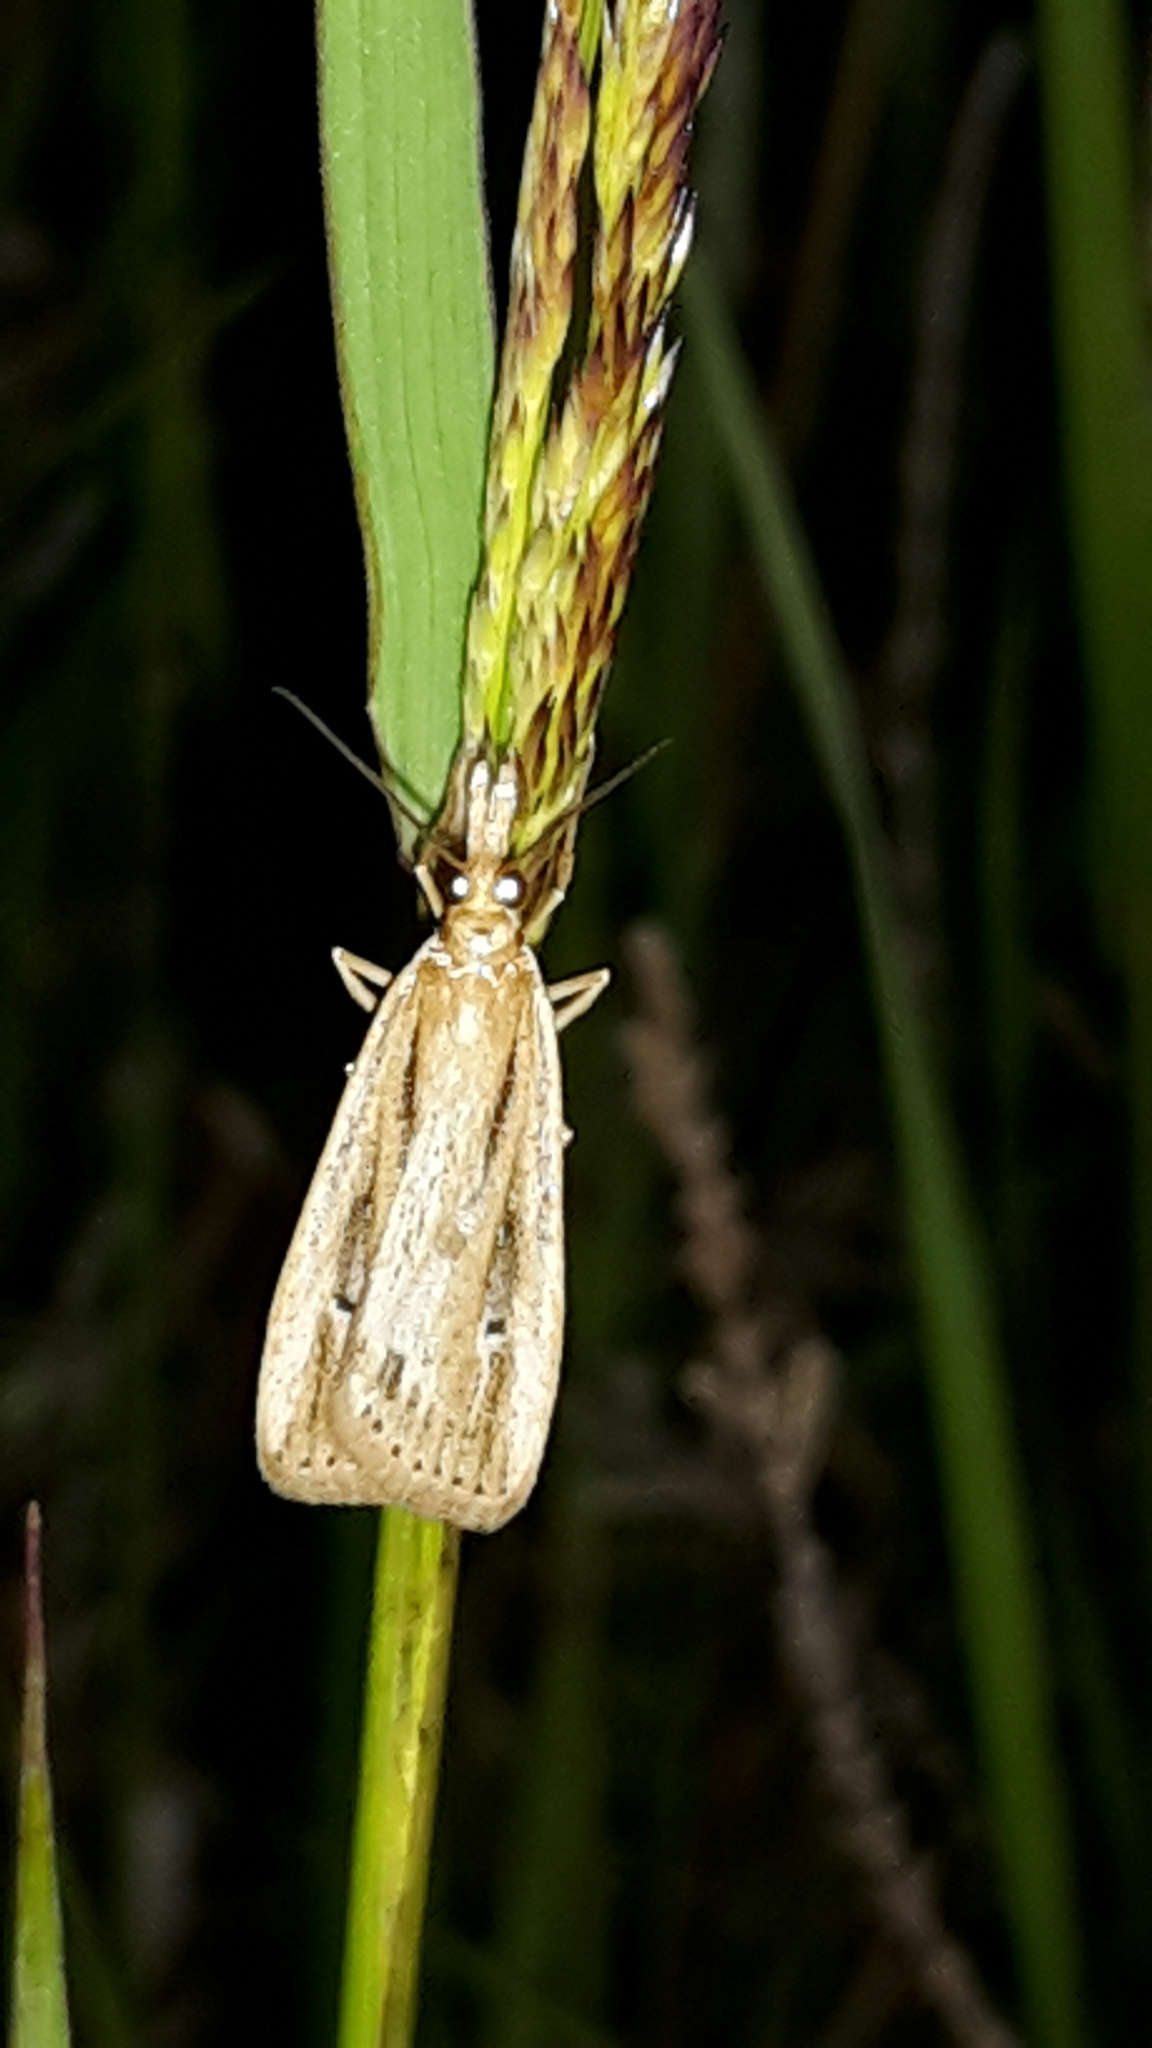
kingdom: Animalia
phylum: Arthropoda
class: Insecta
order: Lepidoptera
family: Crambidae
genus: Eudonia
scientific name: Eudonia sabulosella
